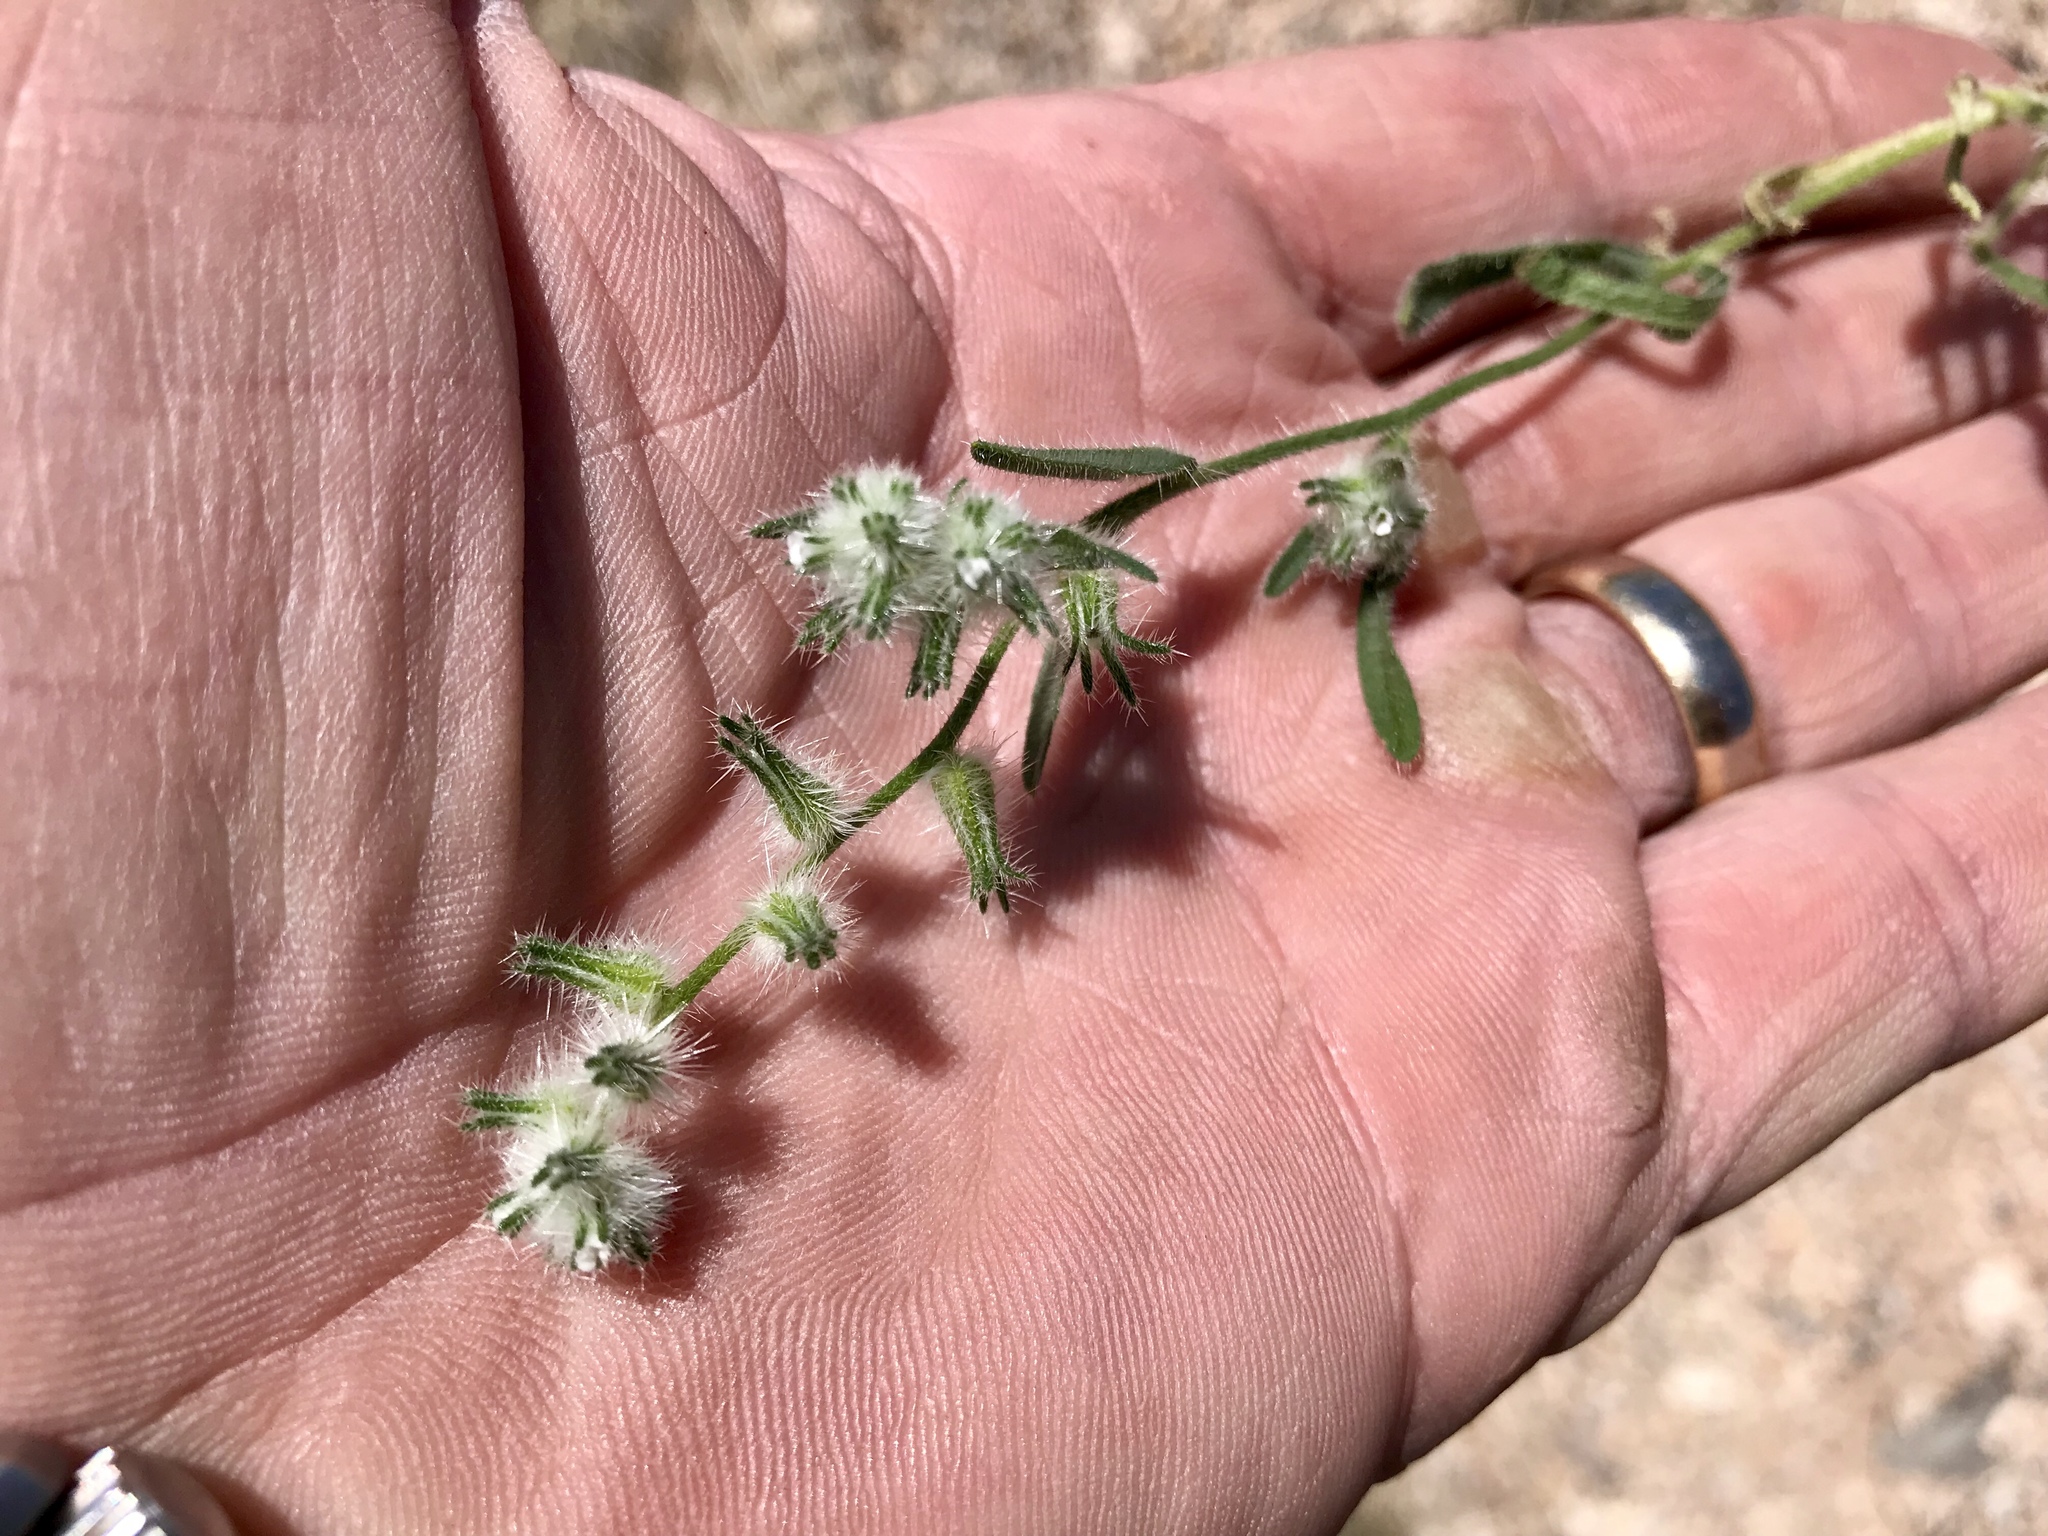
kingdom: Plantae
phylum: Tracheophyta
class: Magnoliopsida
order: Boraginales
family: Boraginaceae
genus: Johnstonella
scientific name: Johnstonella angustifolia
